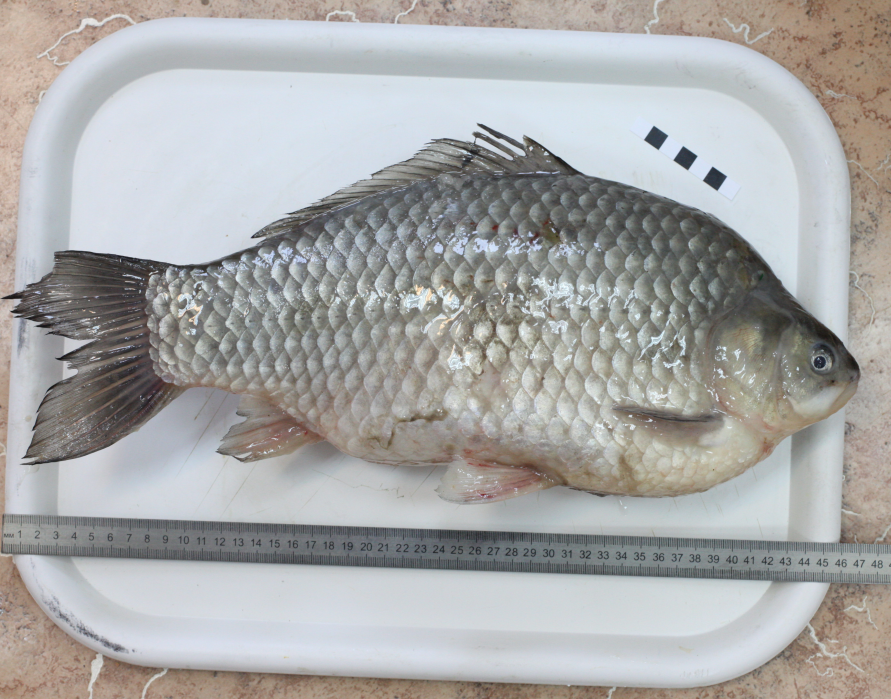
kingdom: Animalia
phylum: Chordata
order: Cypriniformes
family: Cyprinidae
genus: Carassius
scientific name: Carassius gibelio
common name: Prussian carp
